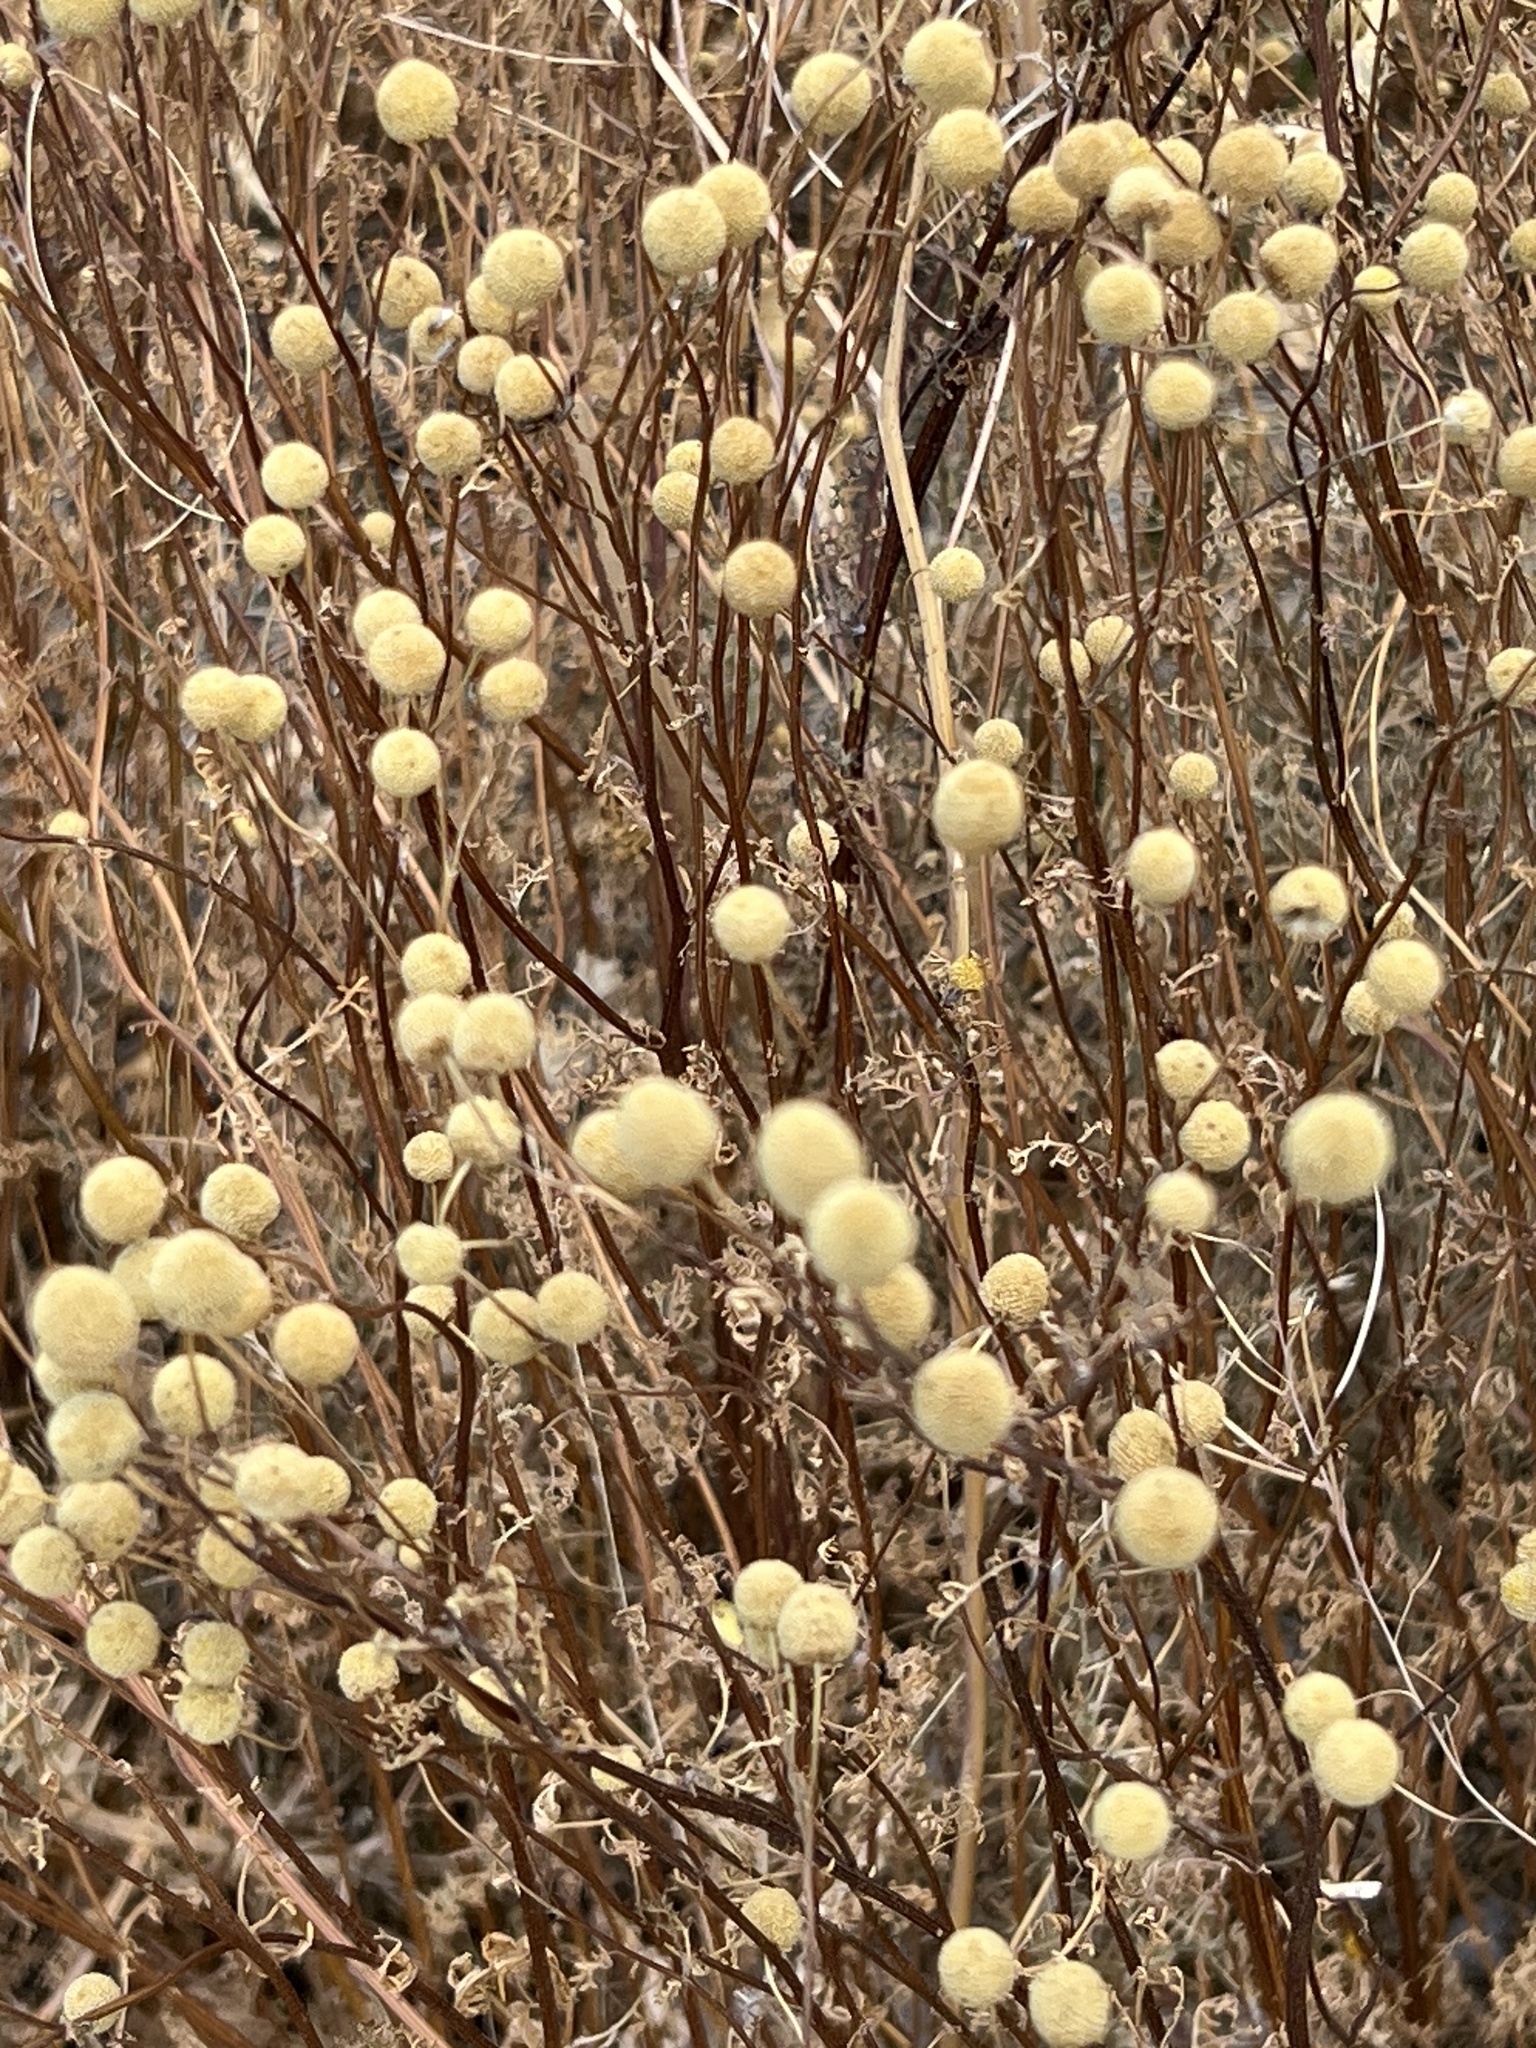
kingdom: Plantae
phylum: Tracheophyta
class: Magnoliopsida
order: Asterales
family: Asteraceae
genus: Oncosiphon
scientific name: Oncosiphon pilulifer
